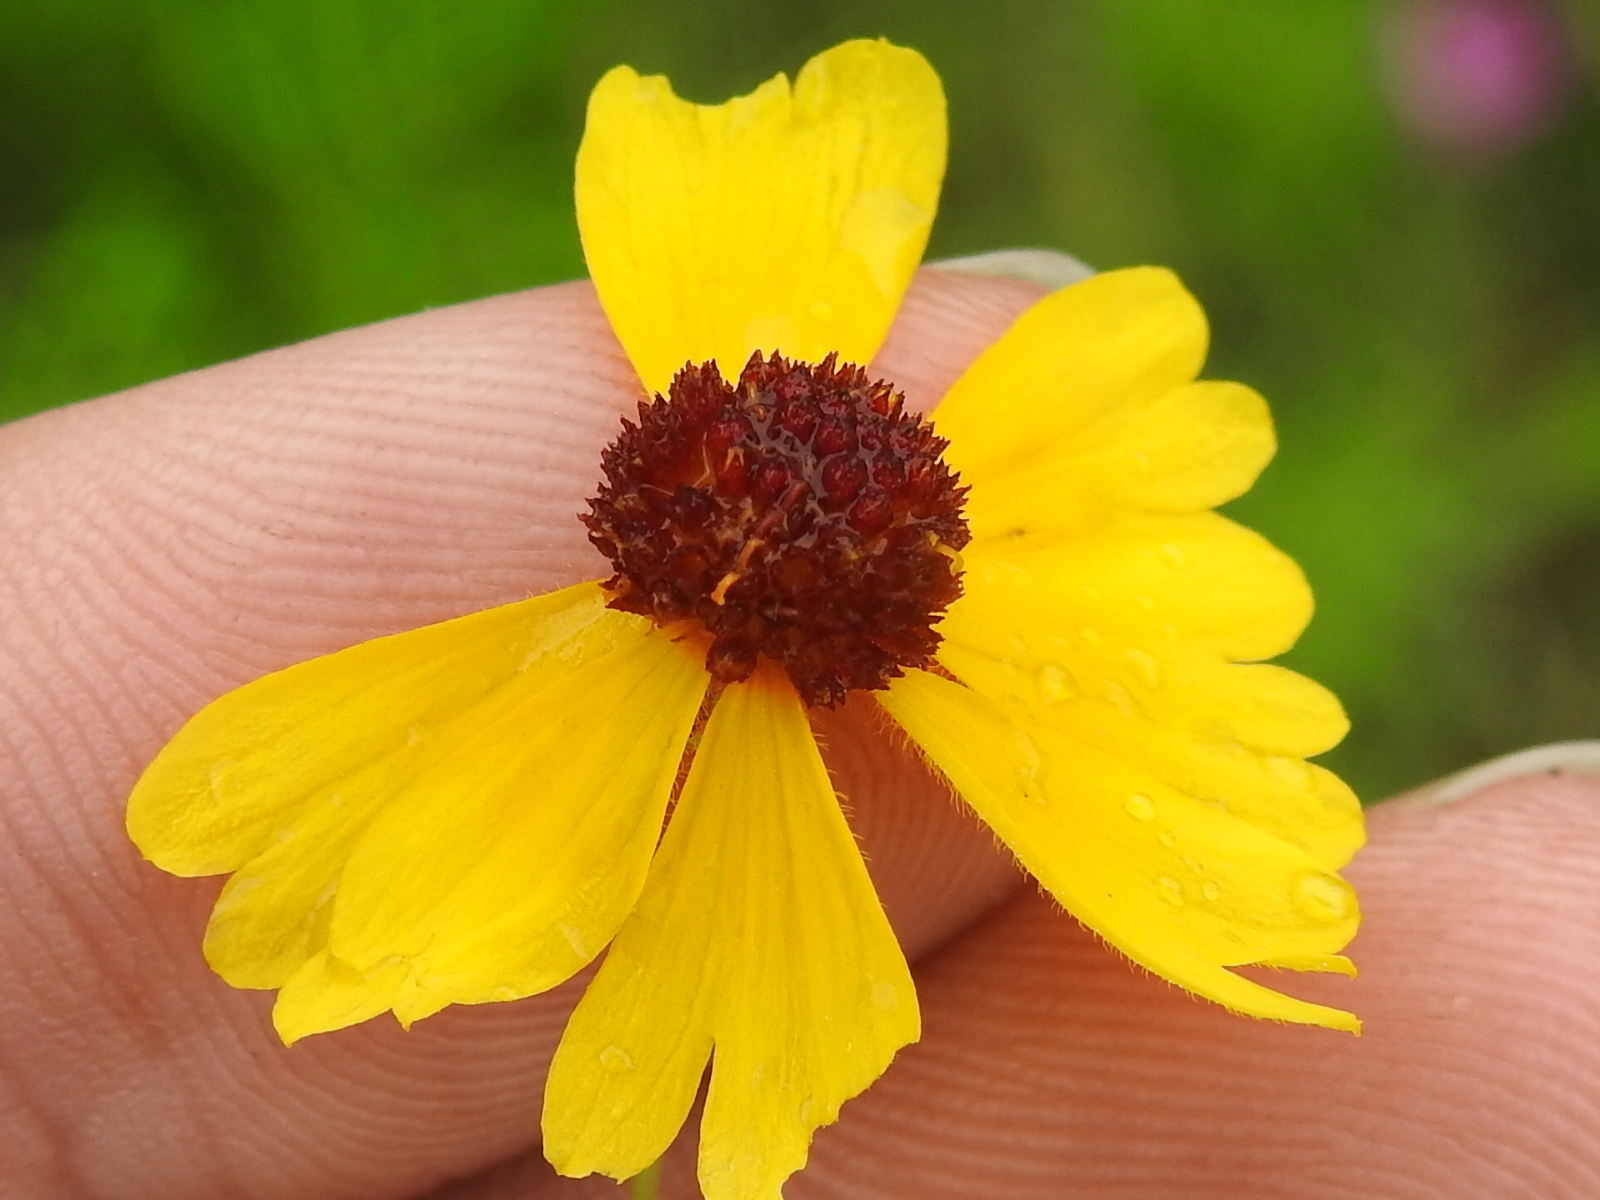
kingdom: Plantae
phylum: Tracheophyta
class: Magnoliopsida
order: Asterales
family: Asteraceae
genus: Helenium
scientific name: Helenium amarum
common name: Bitter sneezeweed
